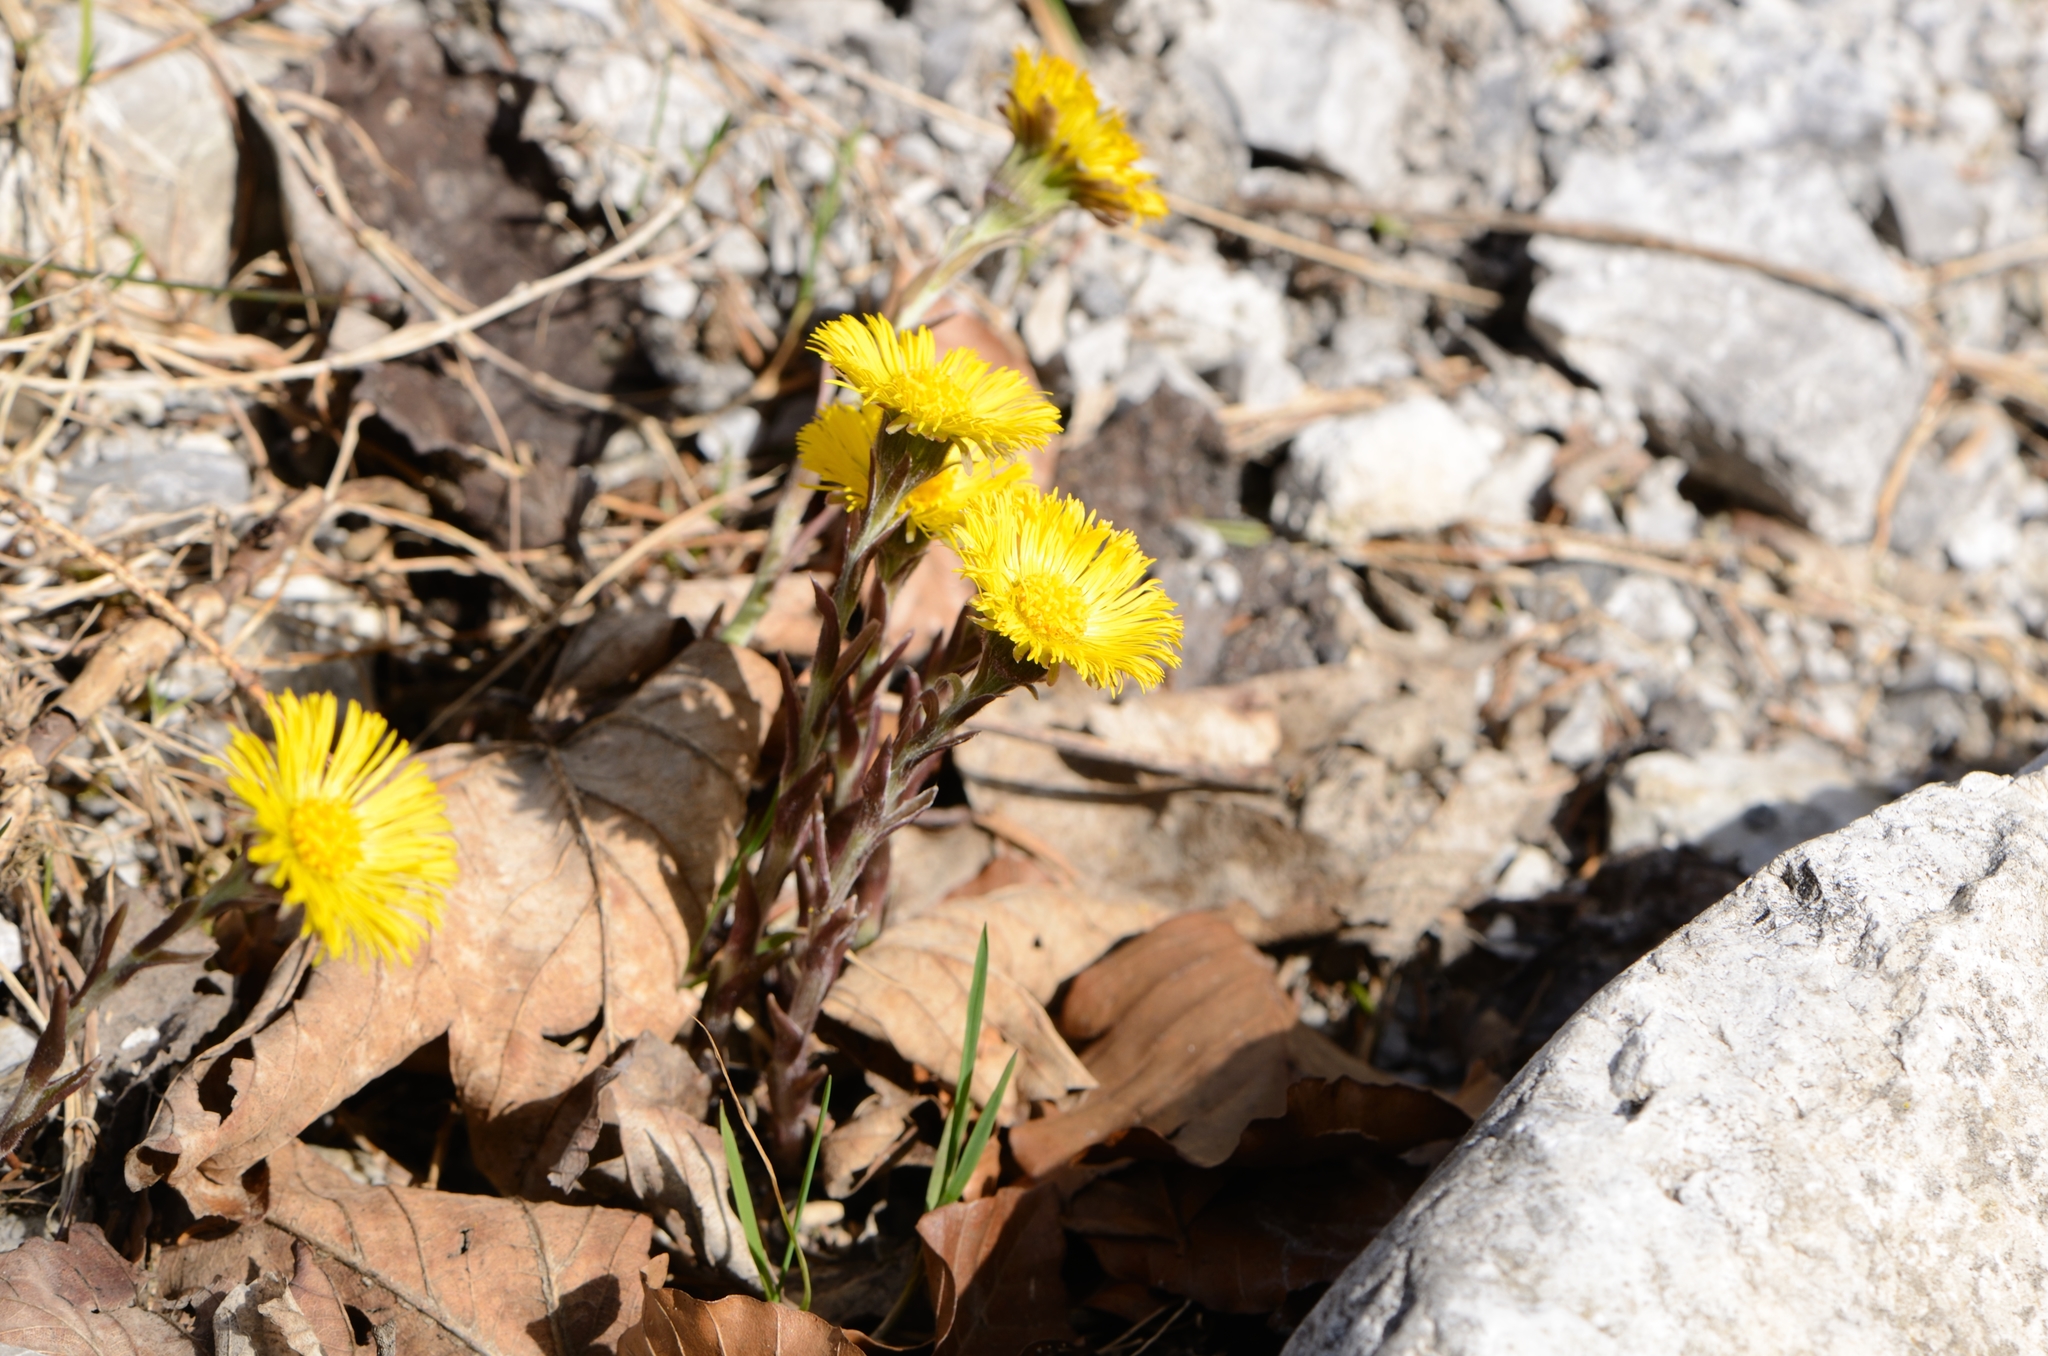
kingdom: Plantae
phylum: Tracheophyta
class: Magnoliopsida
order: Asterales
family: Asteraceae
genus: Tussilago
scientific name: Tussilago farfara
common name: Coltsfoot
